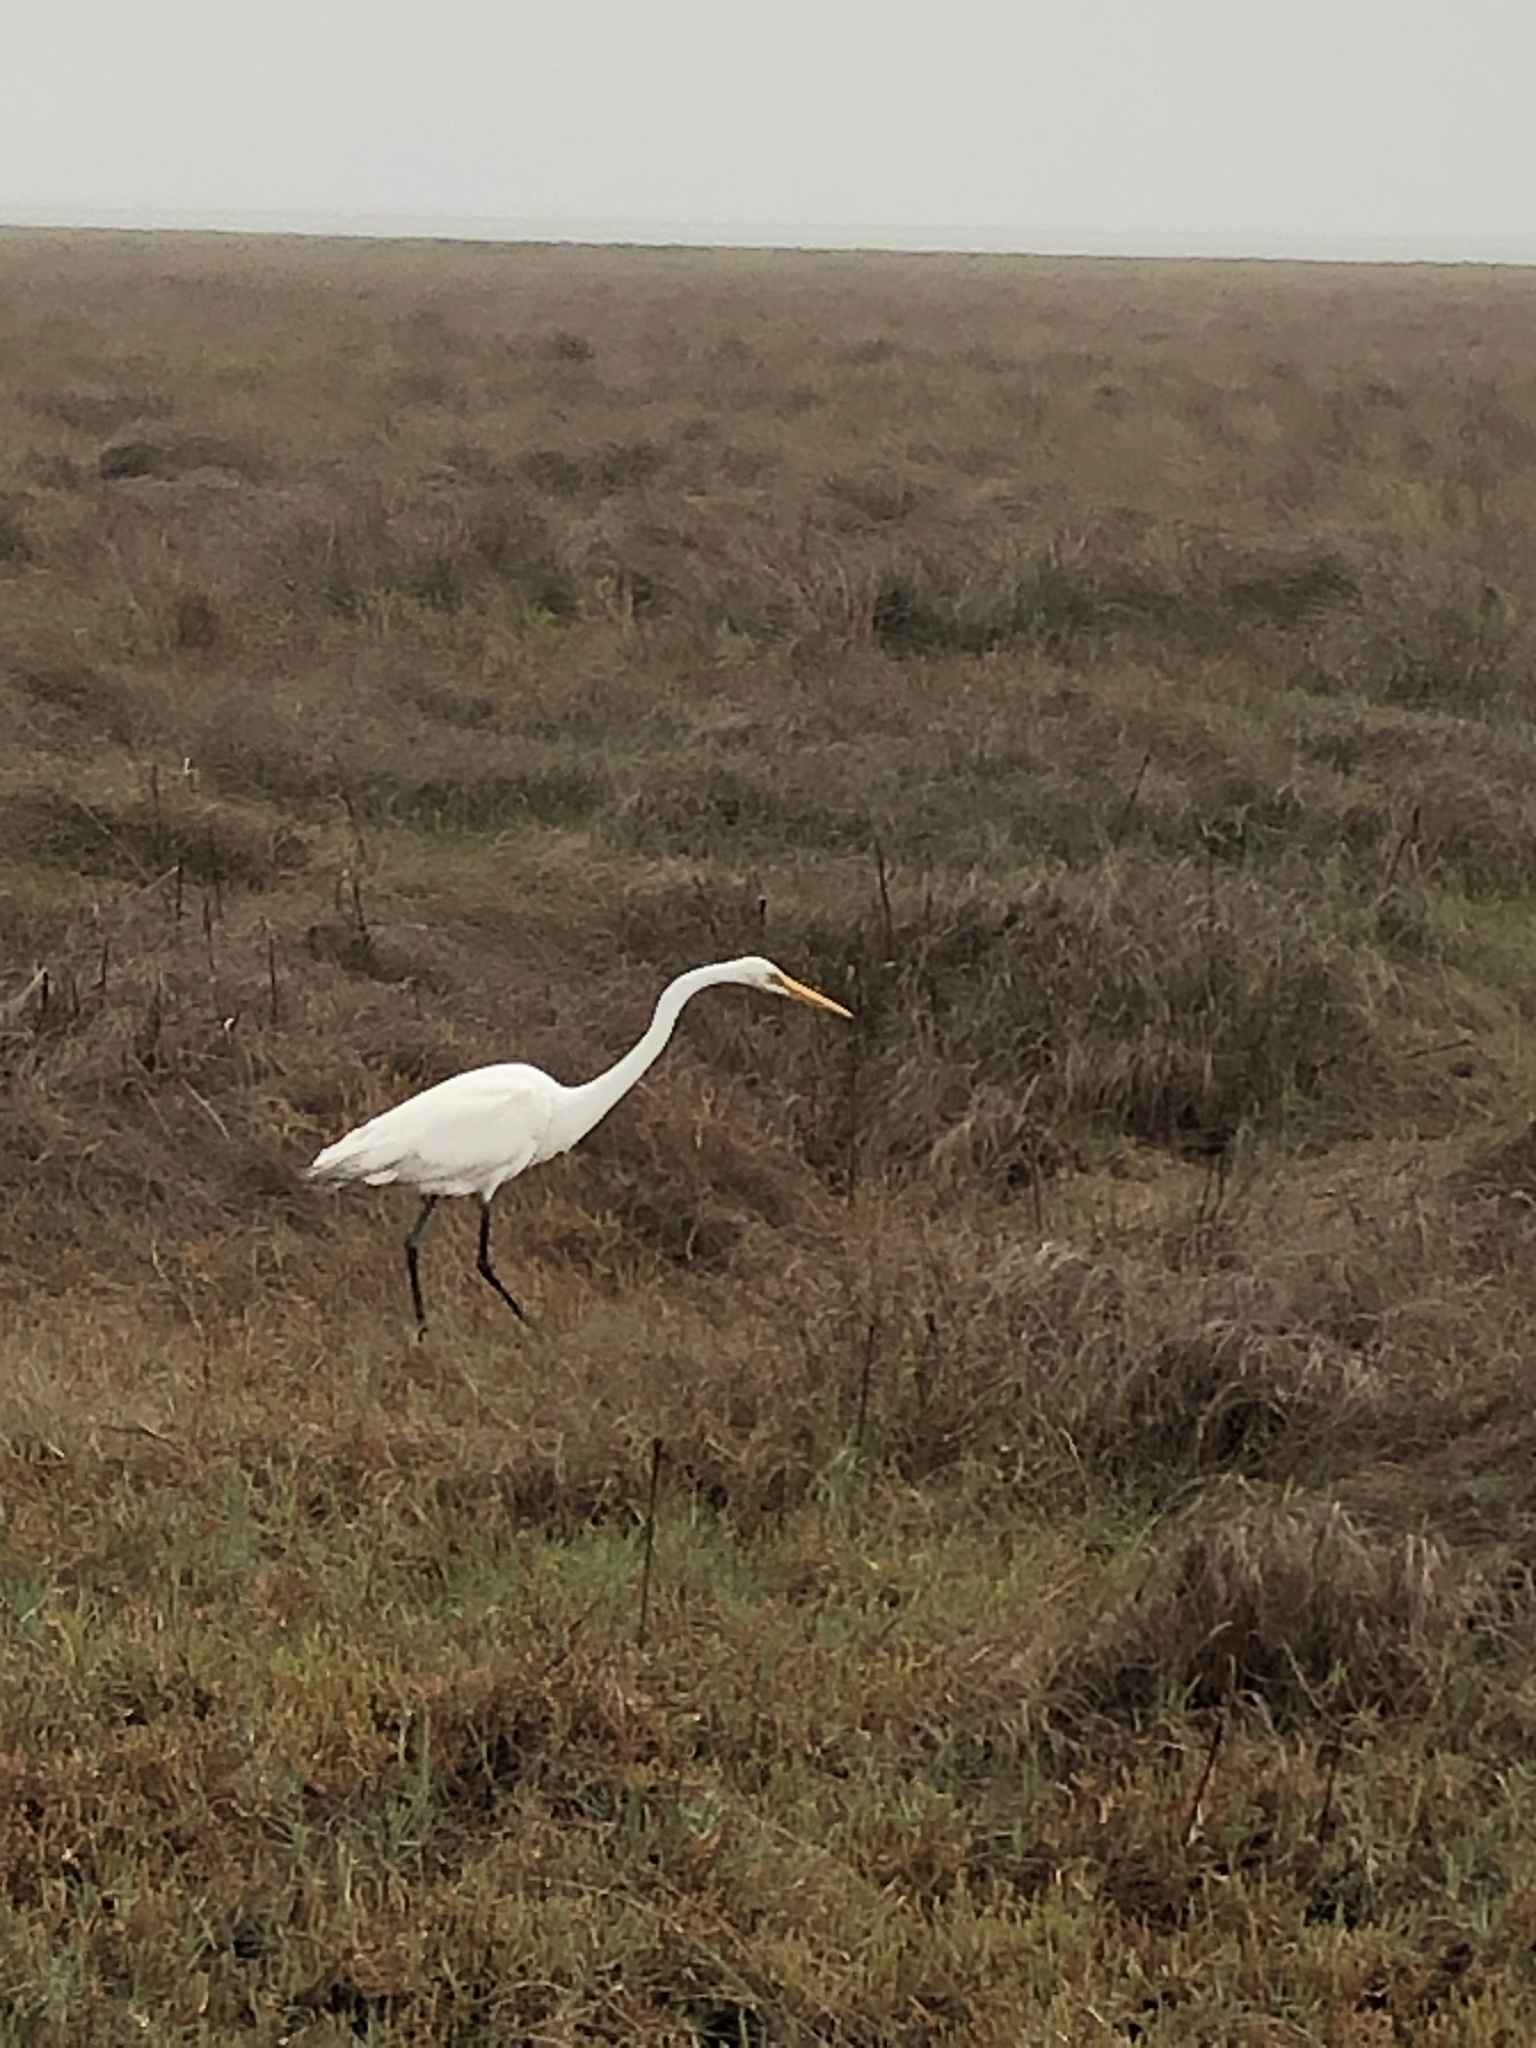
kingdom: Animalia
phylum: Chordata
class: Aves
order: Pelecaniformes
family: Ardeidae
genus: Ardea
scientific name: Ardea alba
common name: Great egret
